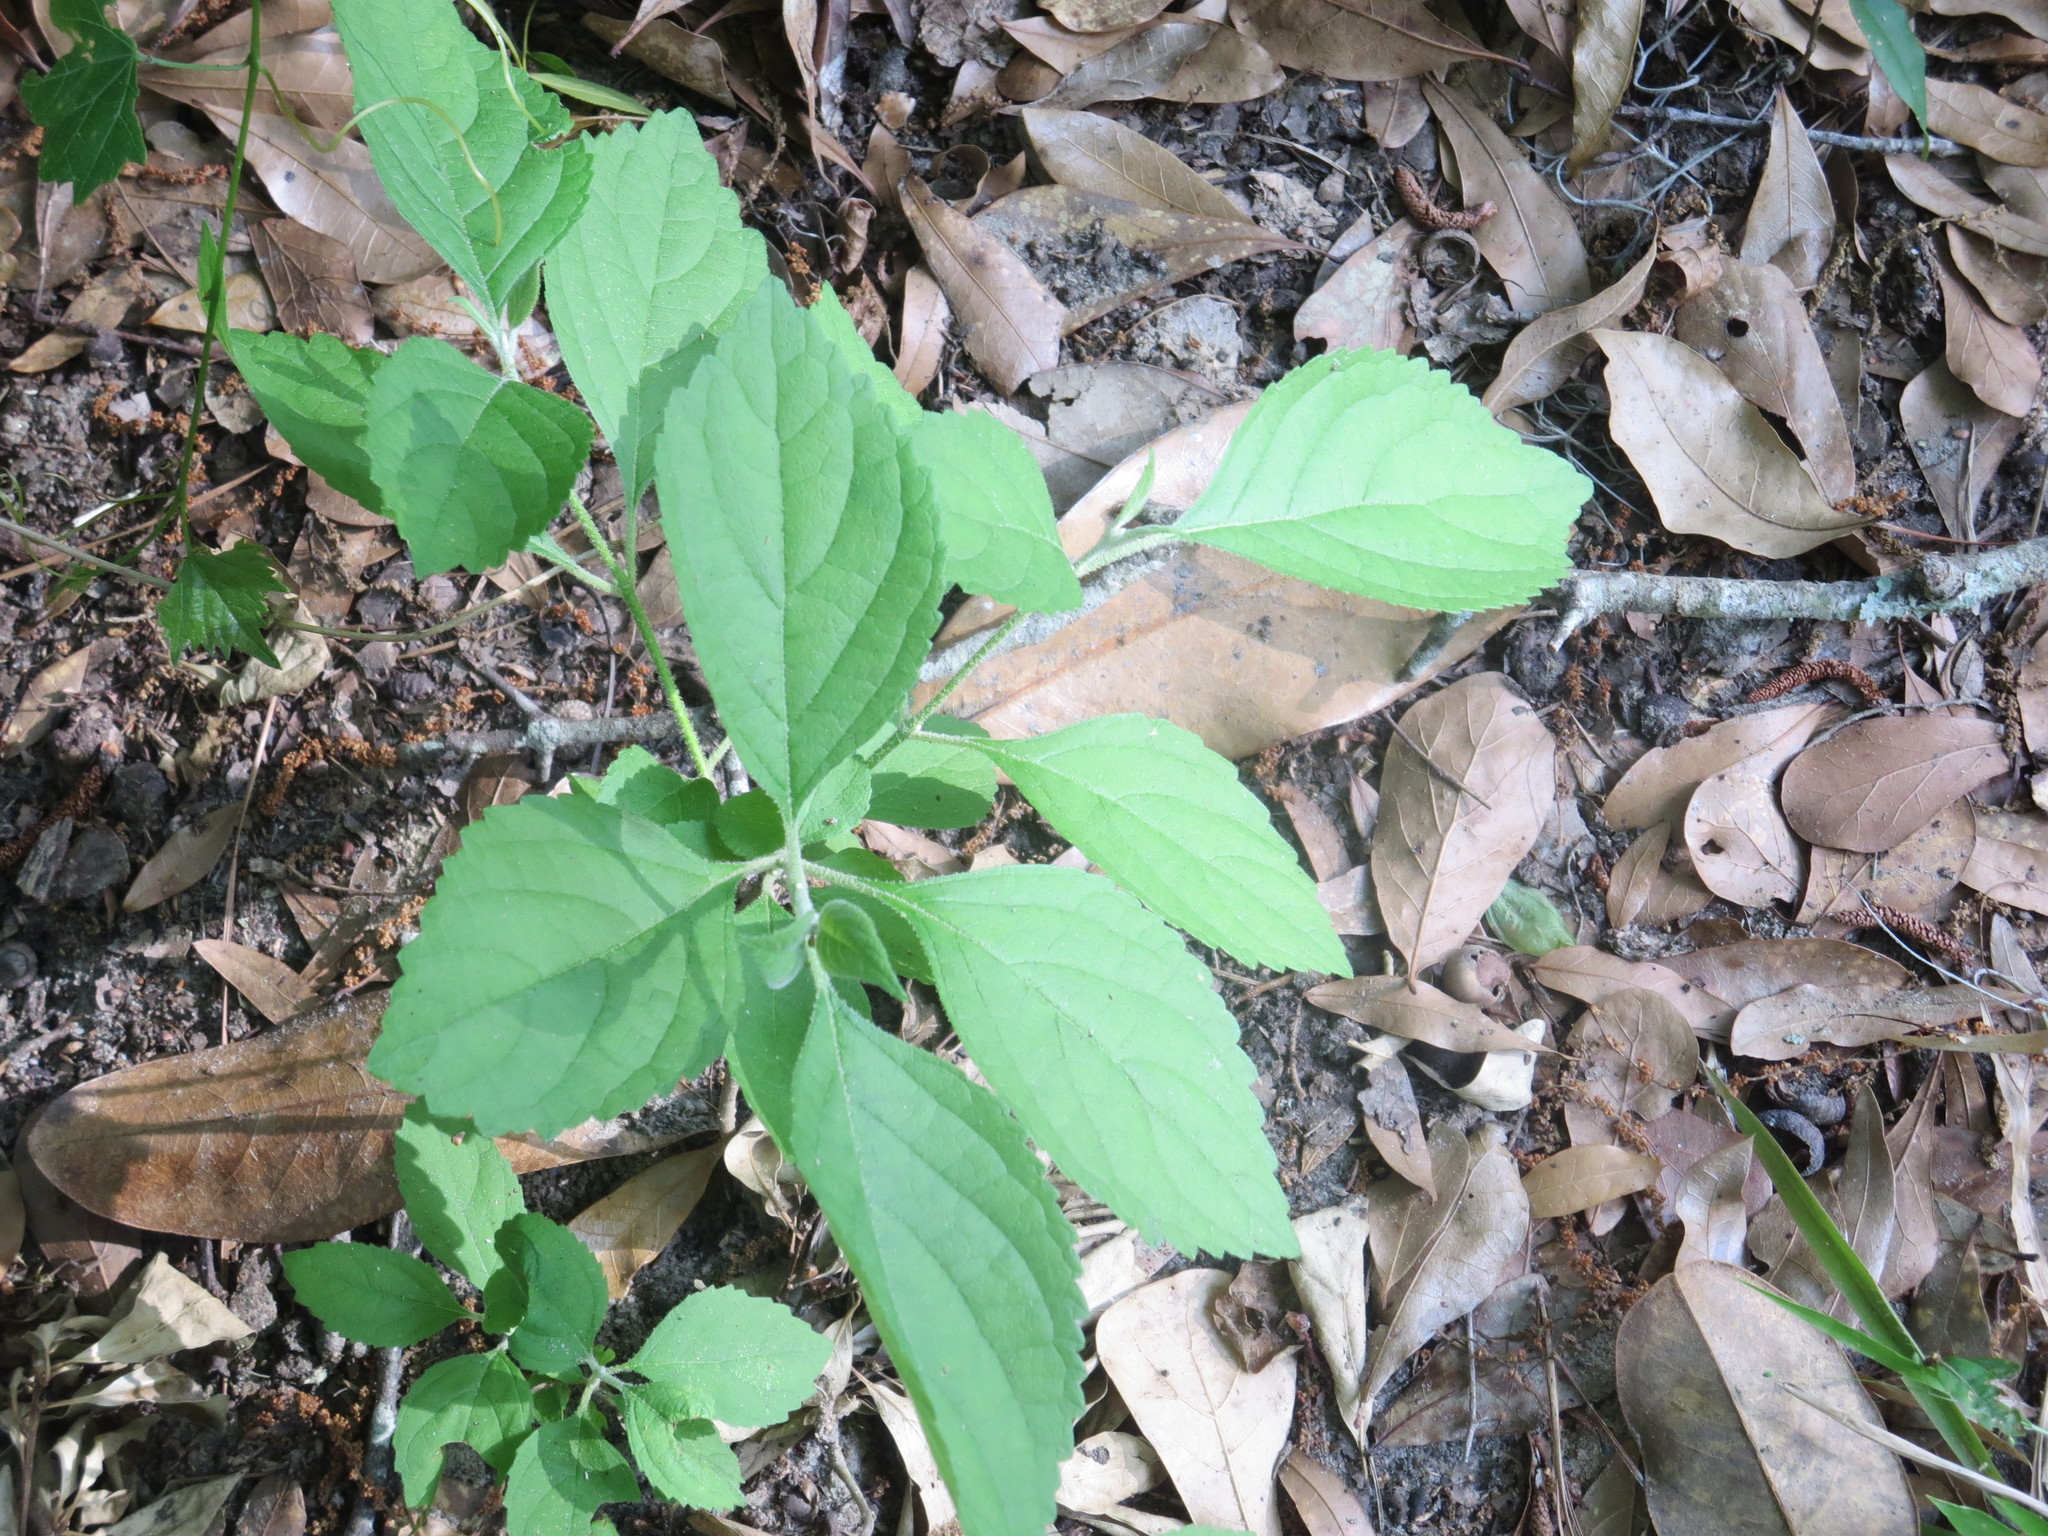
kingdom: Plantae
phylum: Tracheophyta
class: Magnoliopsida
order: Lamiales
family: Lamiaceae
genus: Callicarpa
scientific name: Callicarpa americana
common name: American beautyberry
